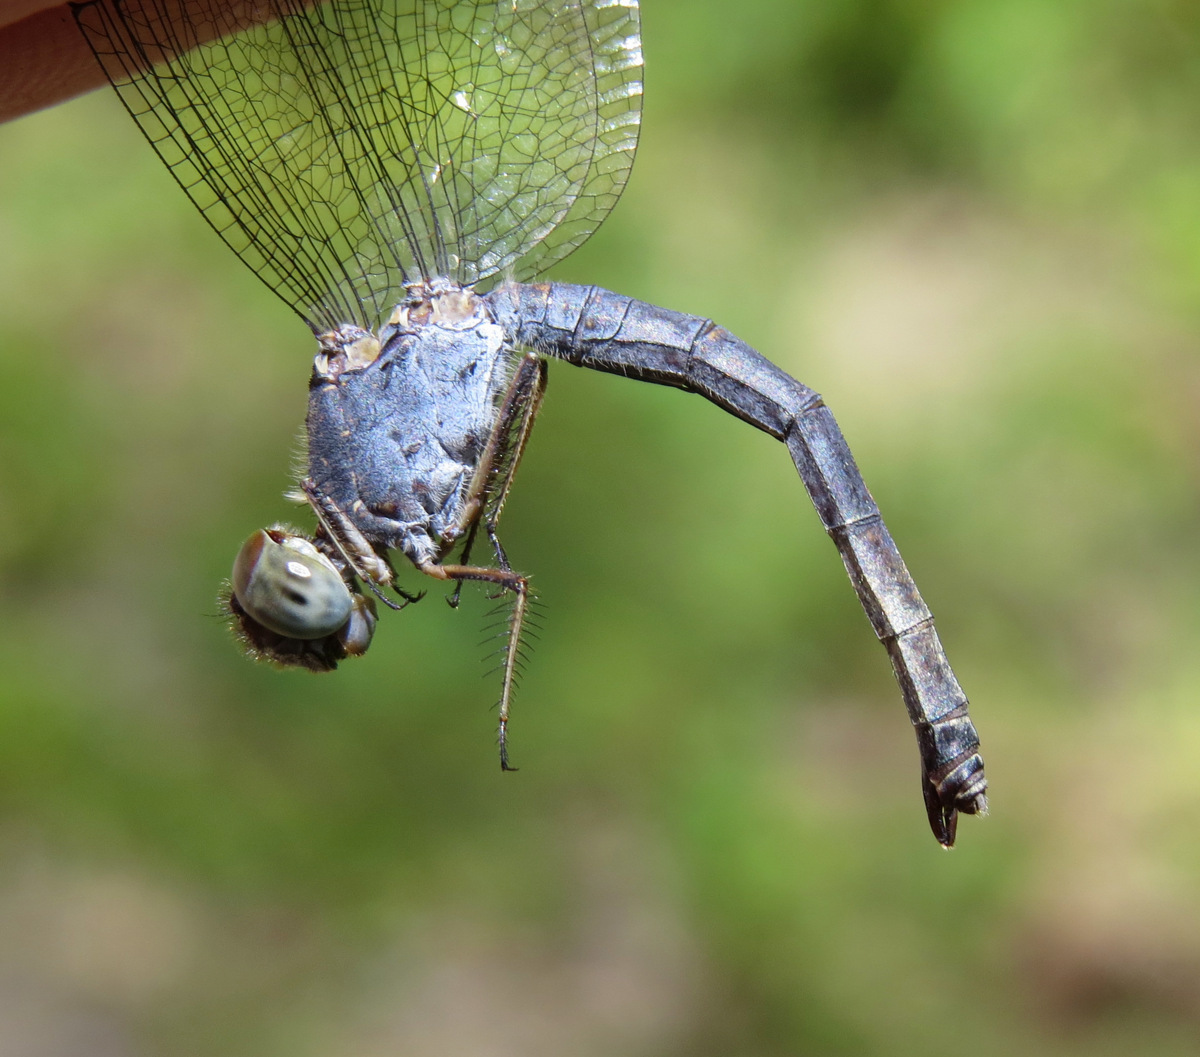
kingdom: Animalia
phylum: Arthropoda
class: Insecta
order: Odonata
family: Libellulidae
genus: Uracis
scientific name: Uracis imbuta
